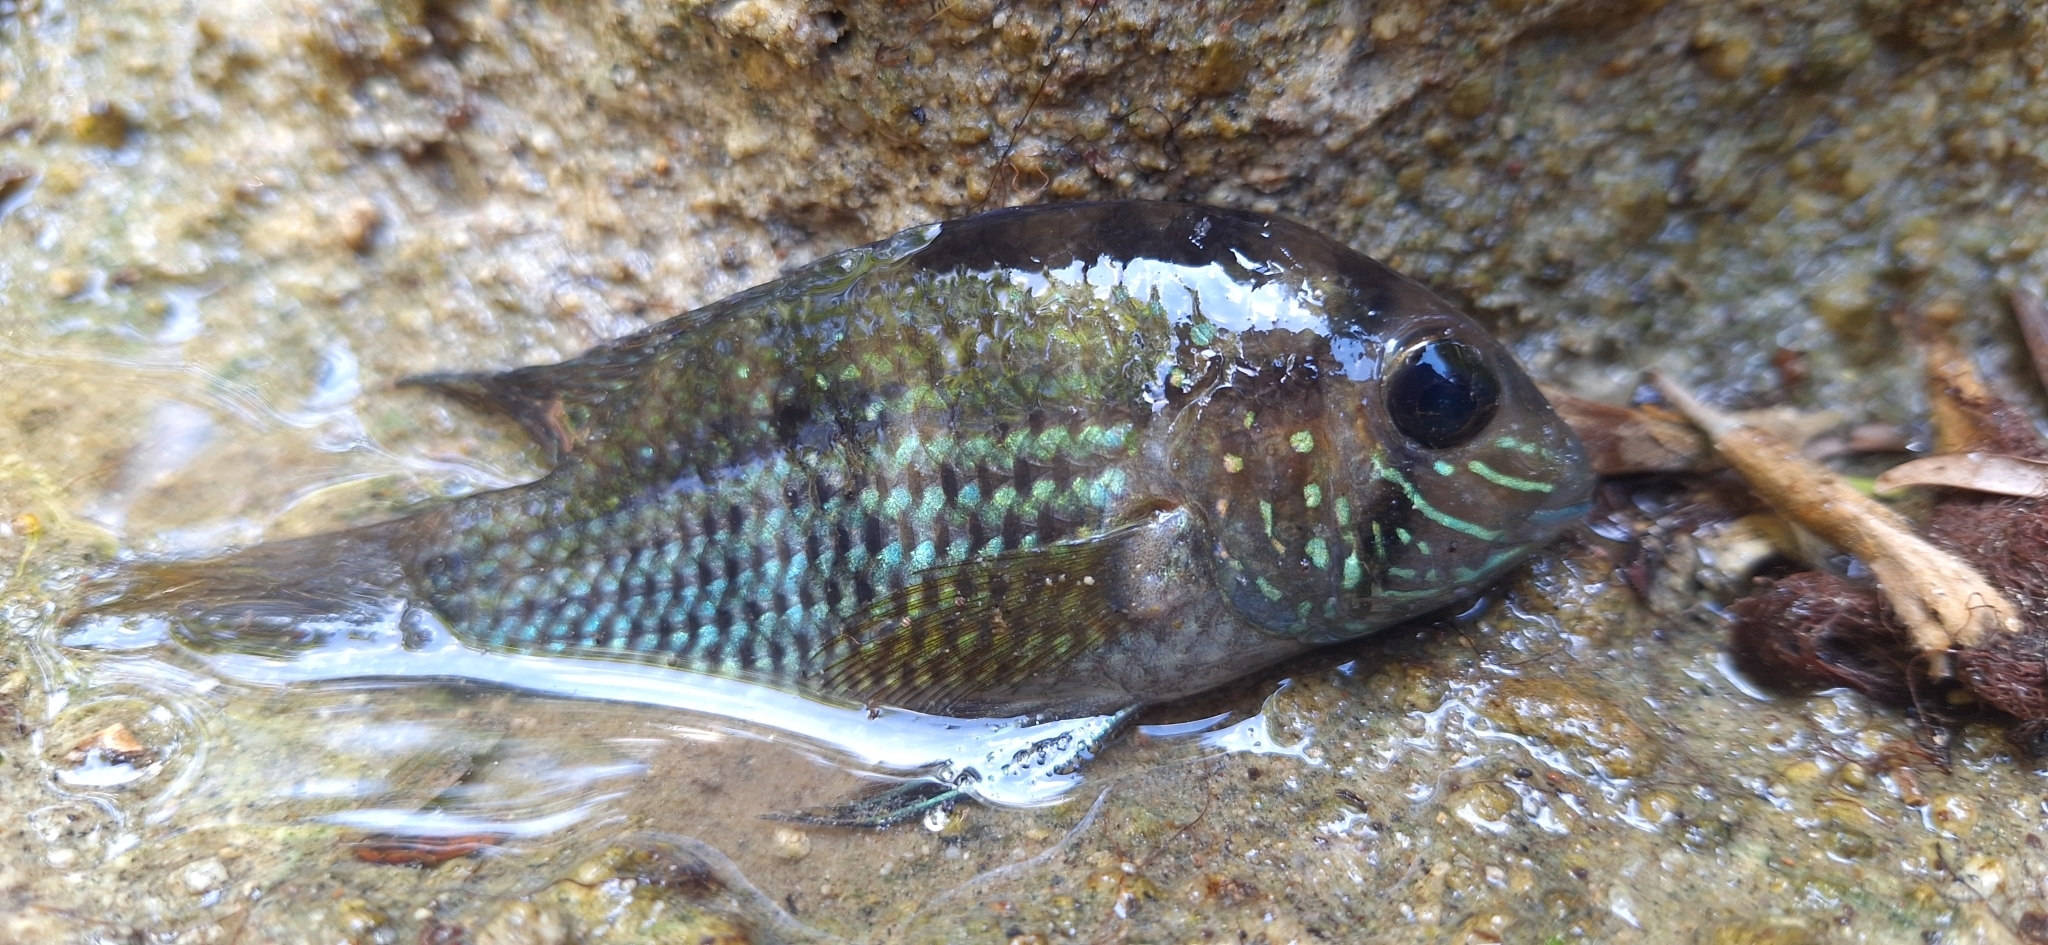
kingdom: Animalia
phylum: Chordata
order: Perciformes
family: Cichlidae
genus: Andinoacara
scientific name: Andinoacara coeruleopunctatus
